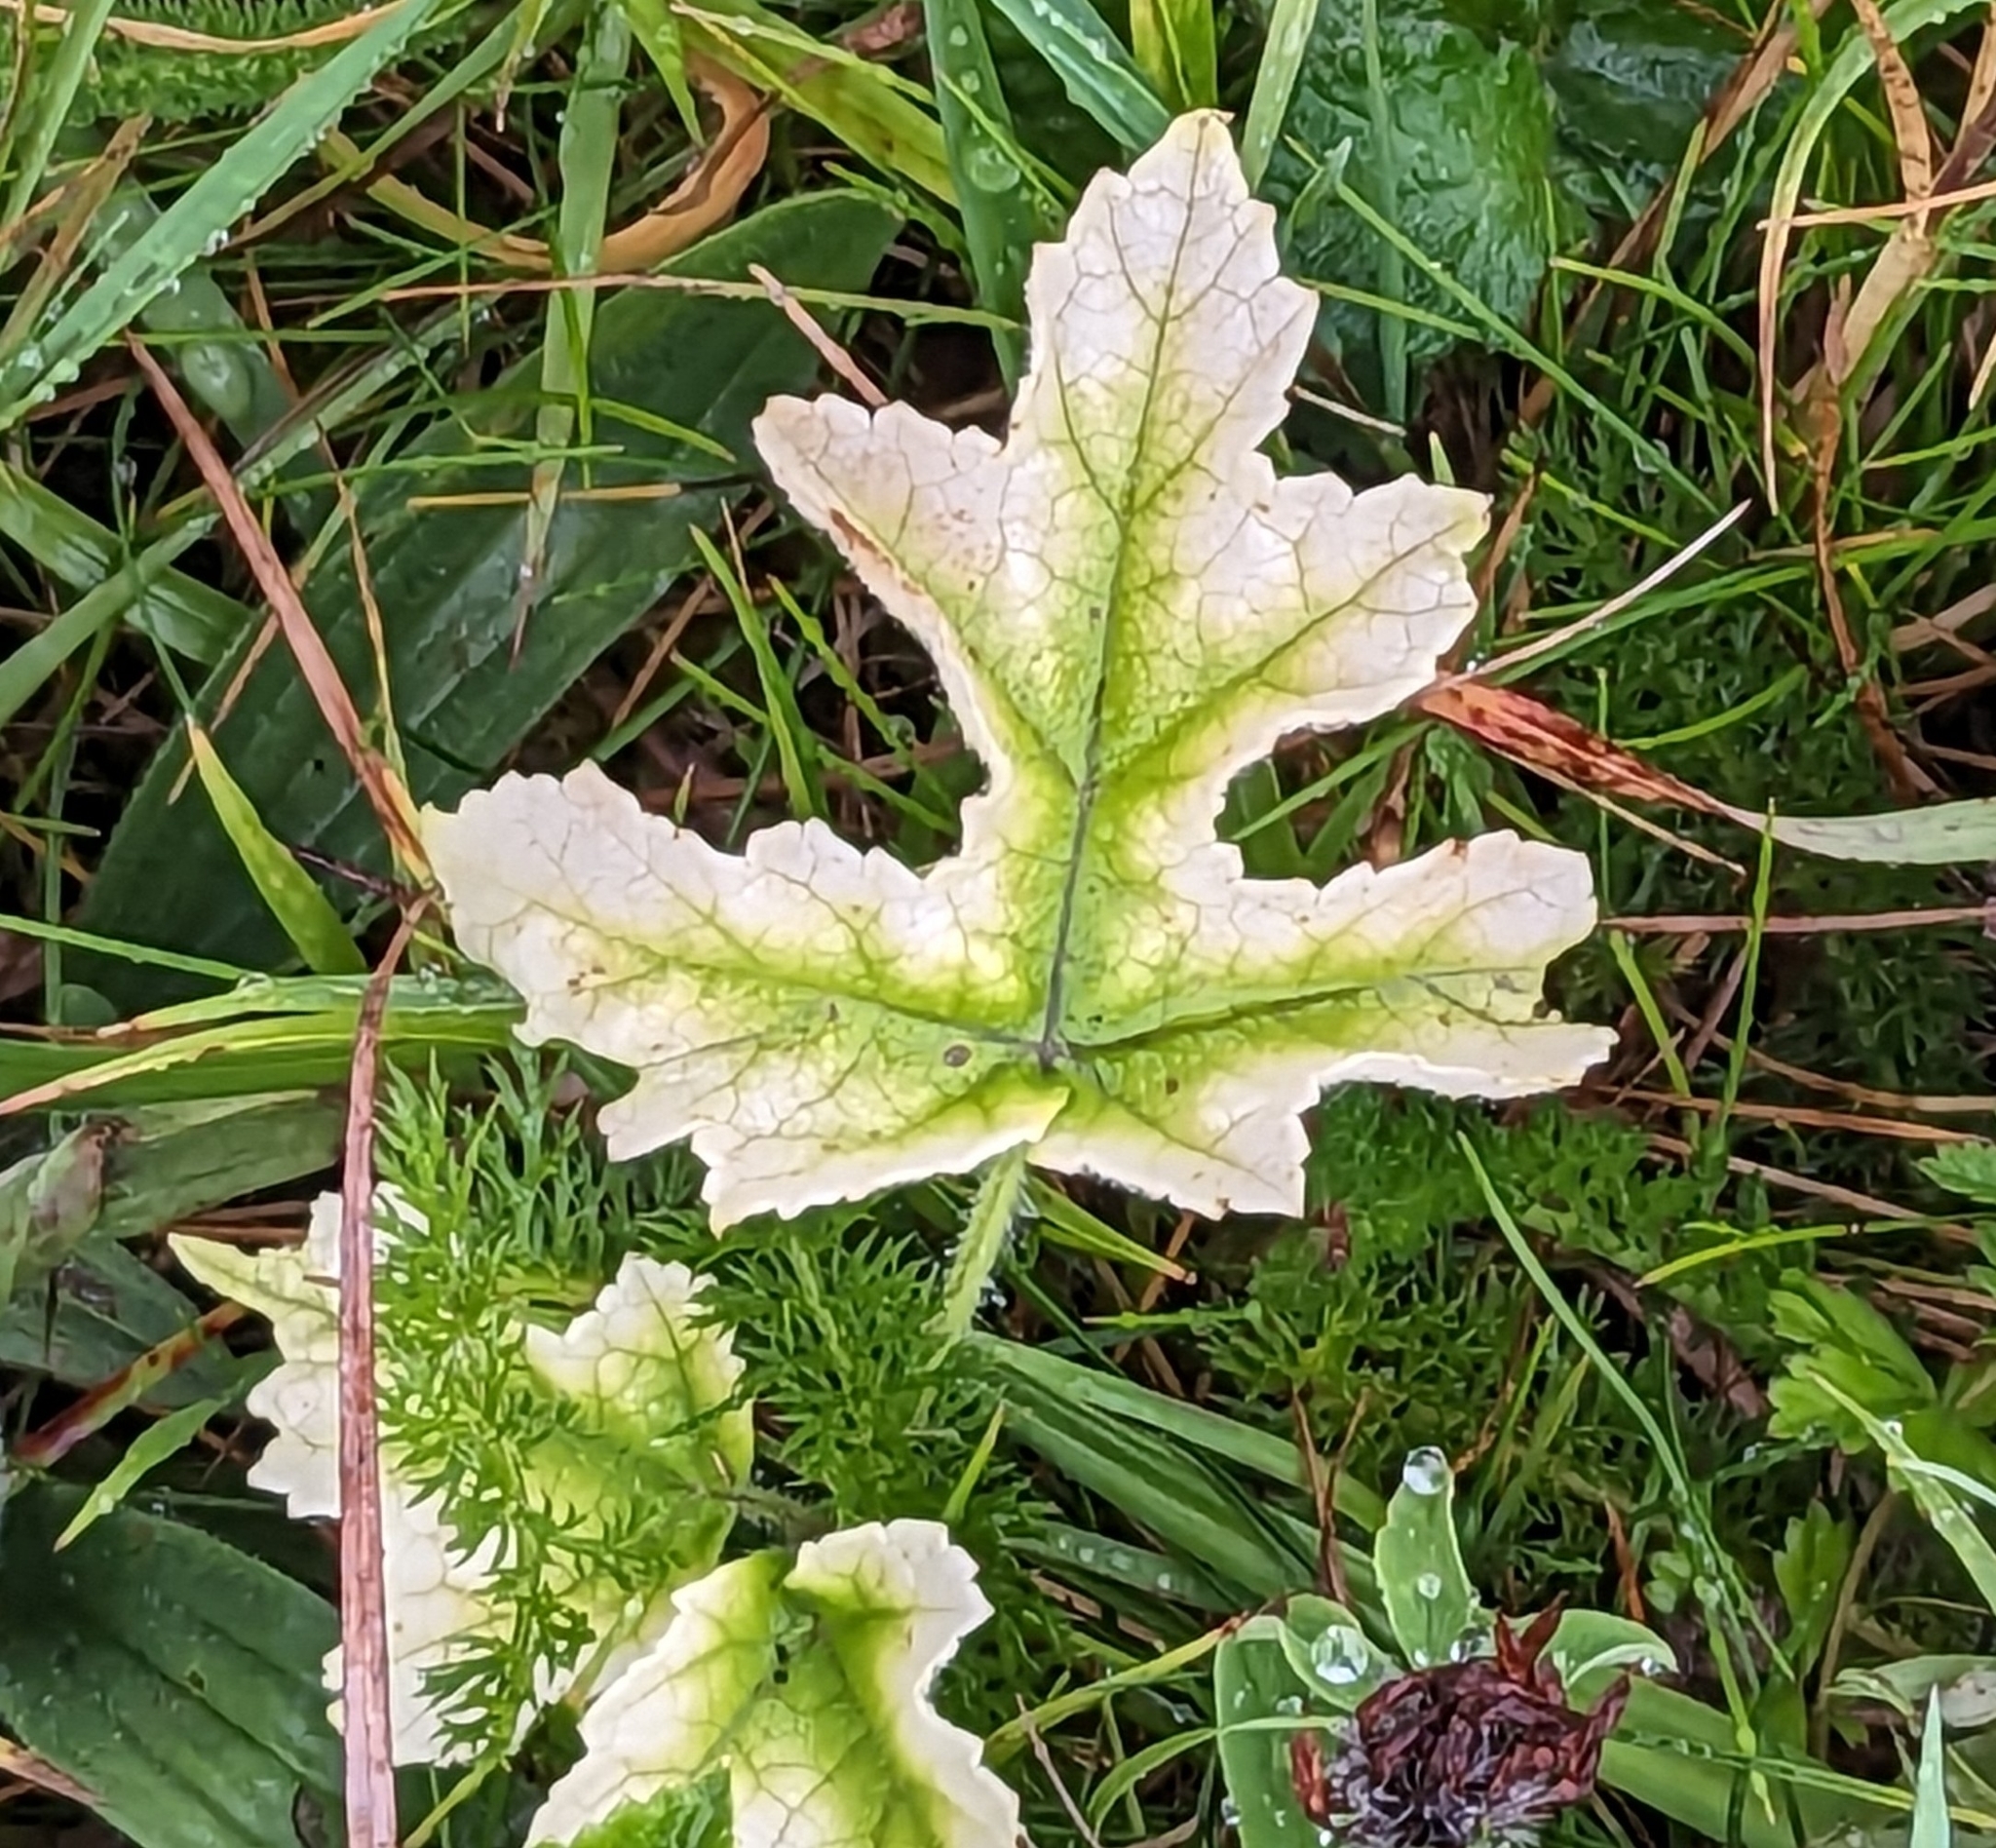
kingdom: Plantae
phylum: Tracheophyta
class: Magnoliopsida
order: Apiales
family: Apiaceae
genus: Heracleum
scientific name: Heracleum sphondylium
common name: Hogweed
